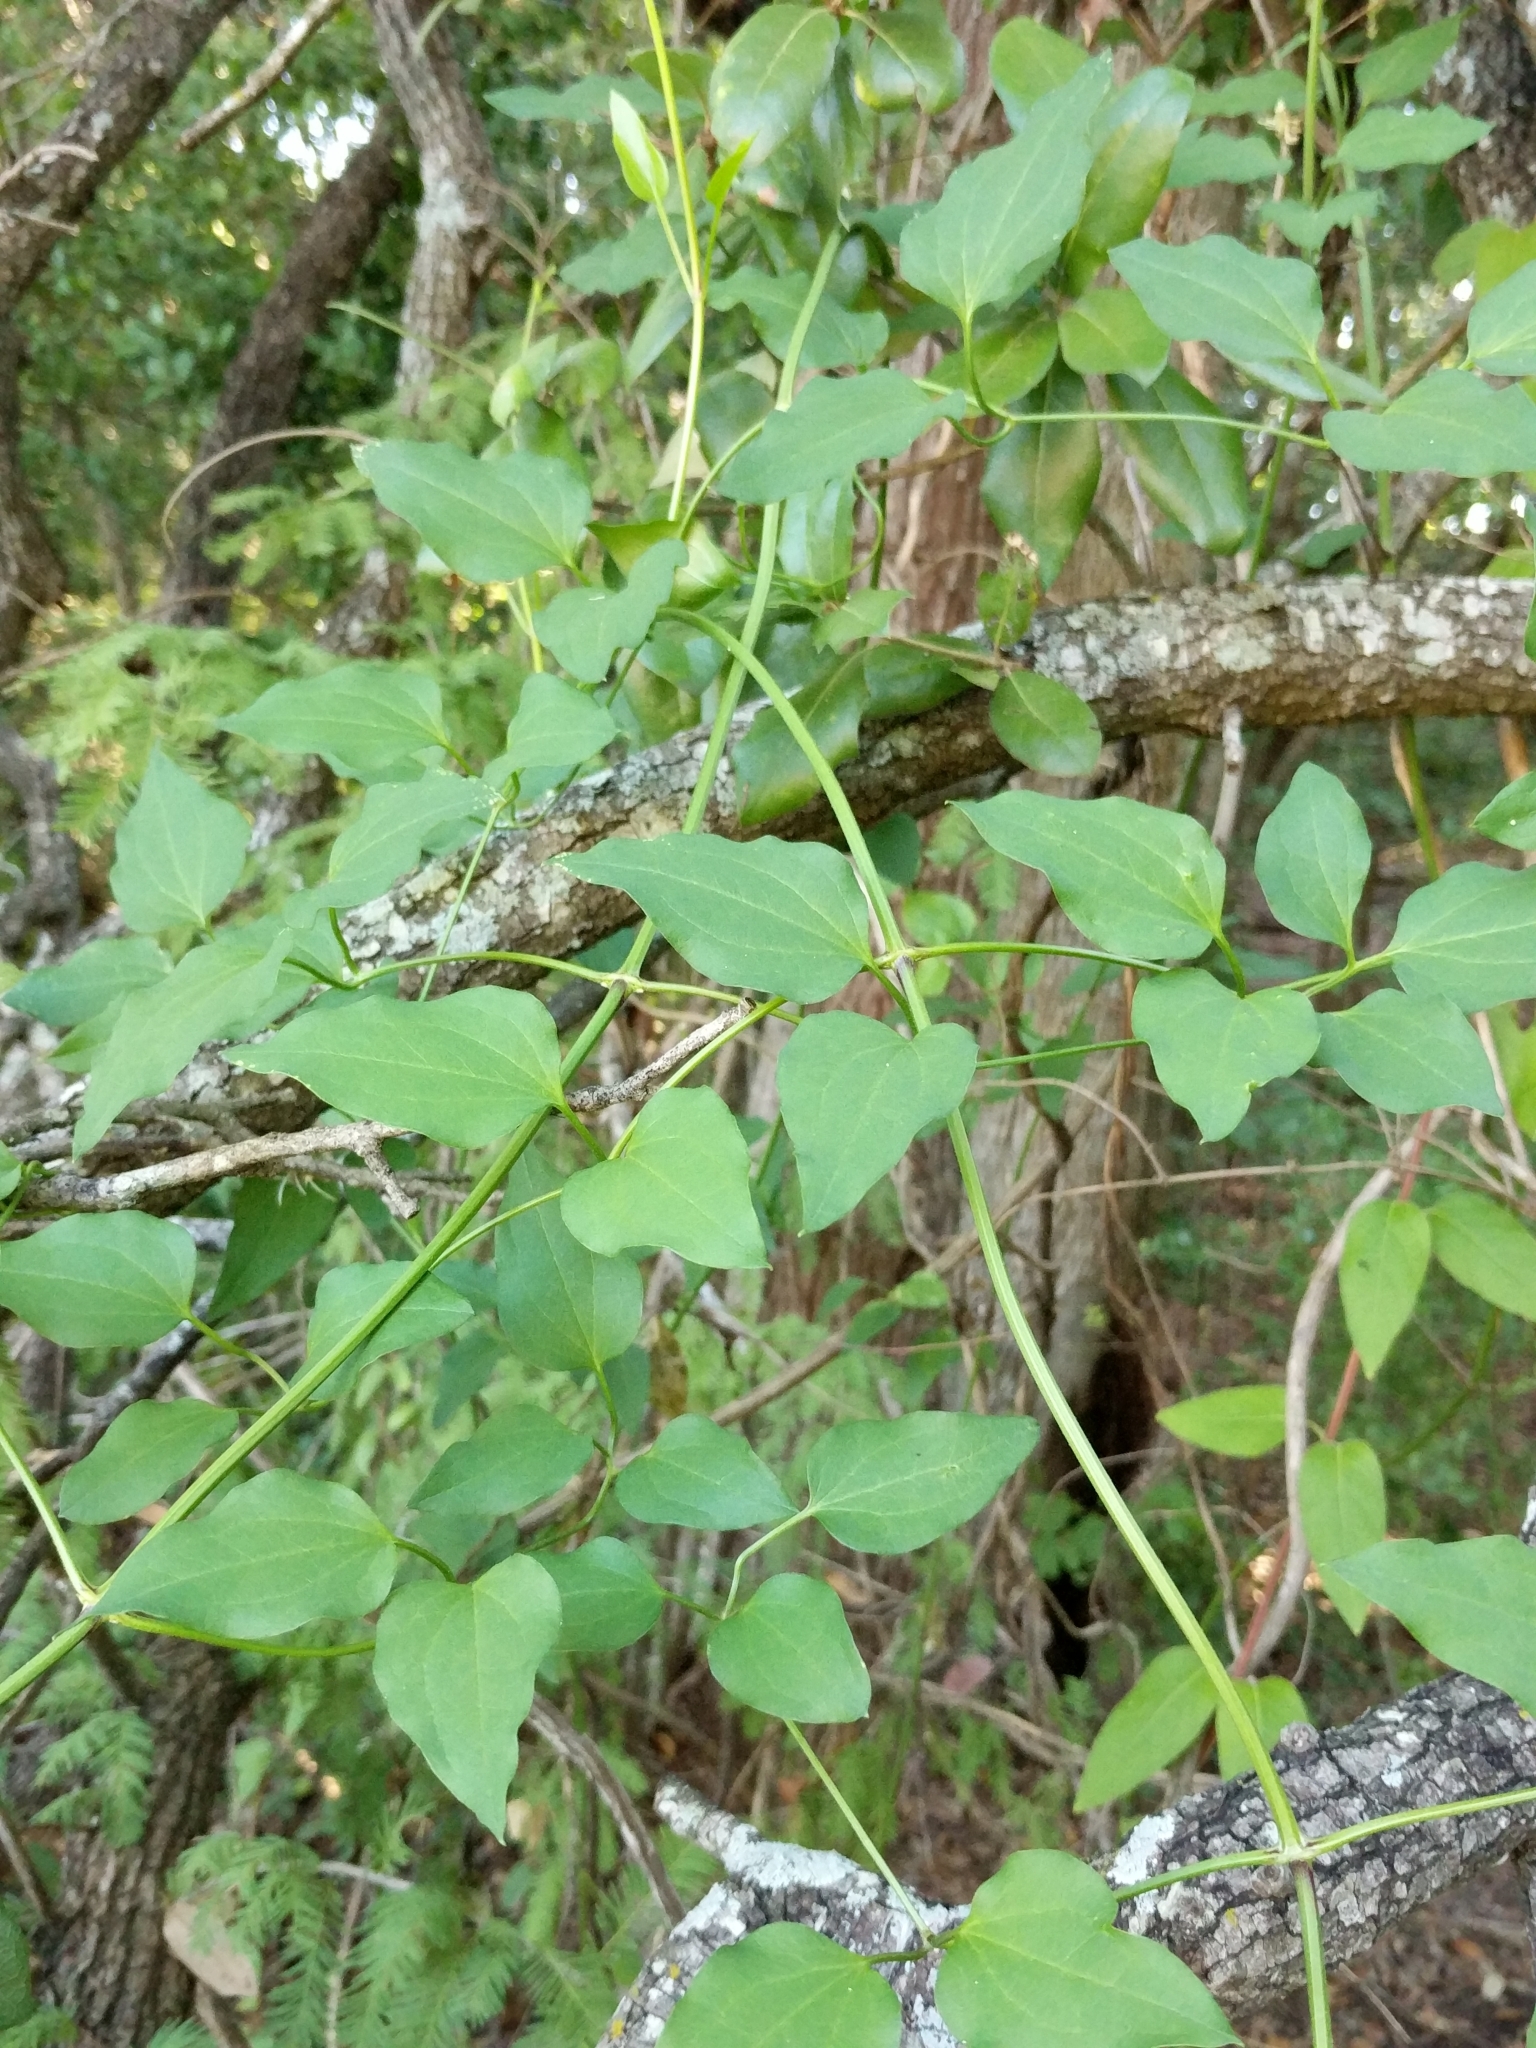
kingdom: Plantae
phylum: Tracheophyta
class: Magnoliopsida
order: Ranunculales
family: Ranunculaceae
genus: Clematis
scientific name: Clematis terniflora
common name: Sweet autumn clematis
